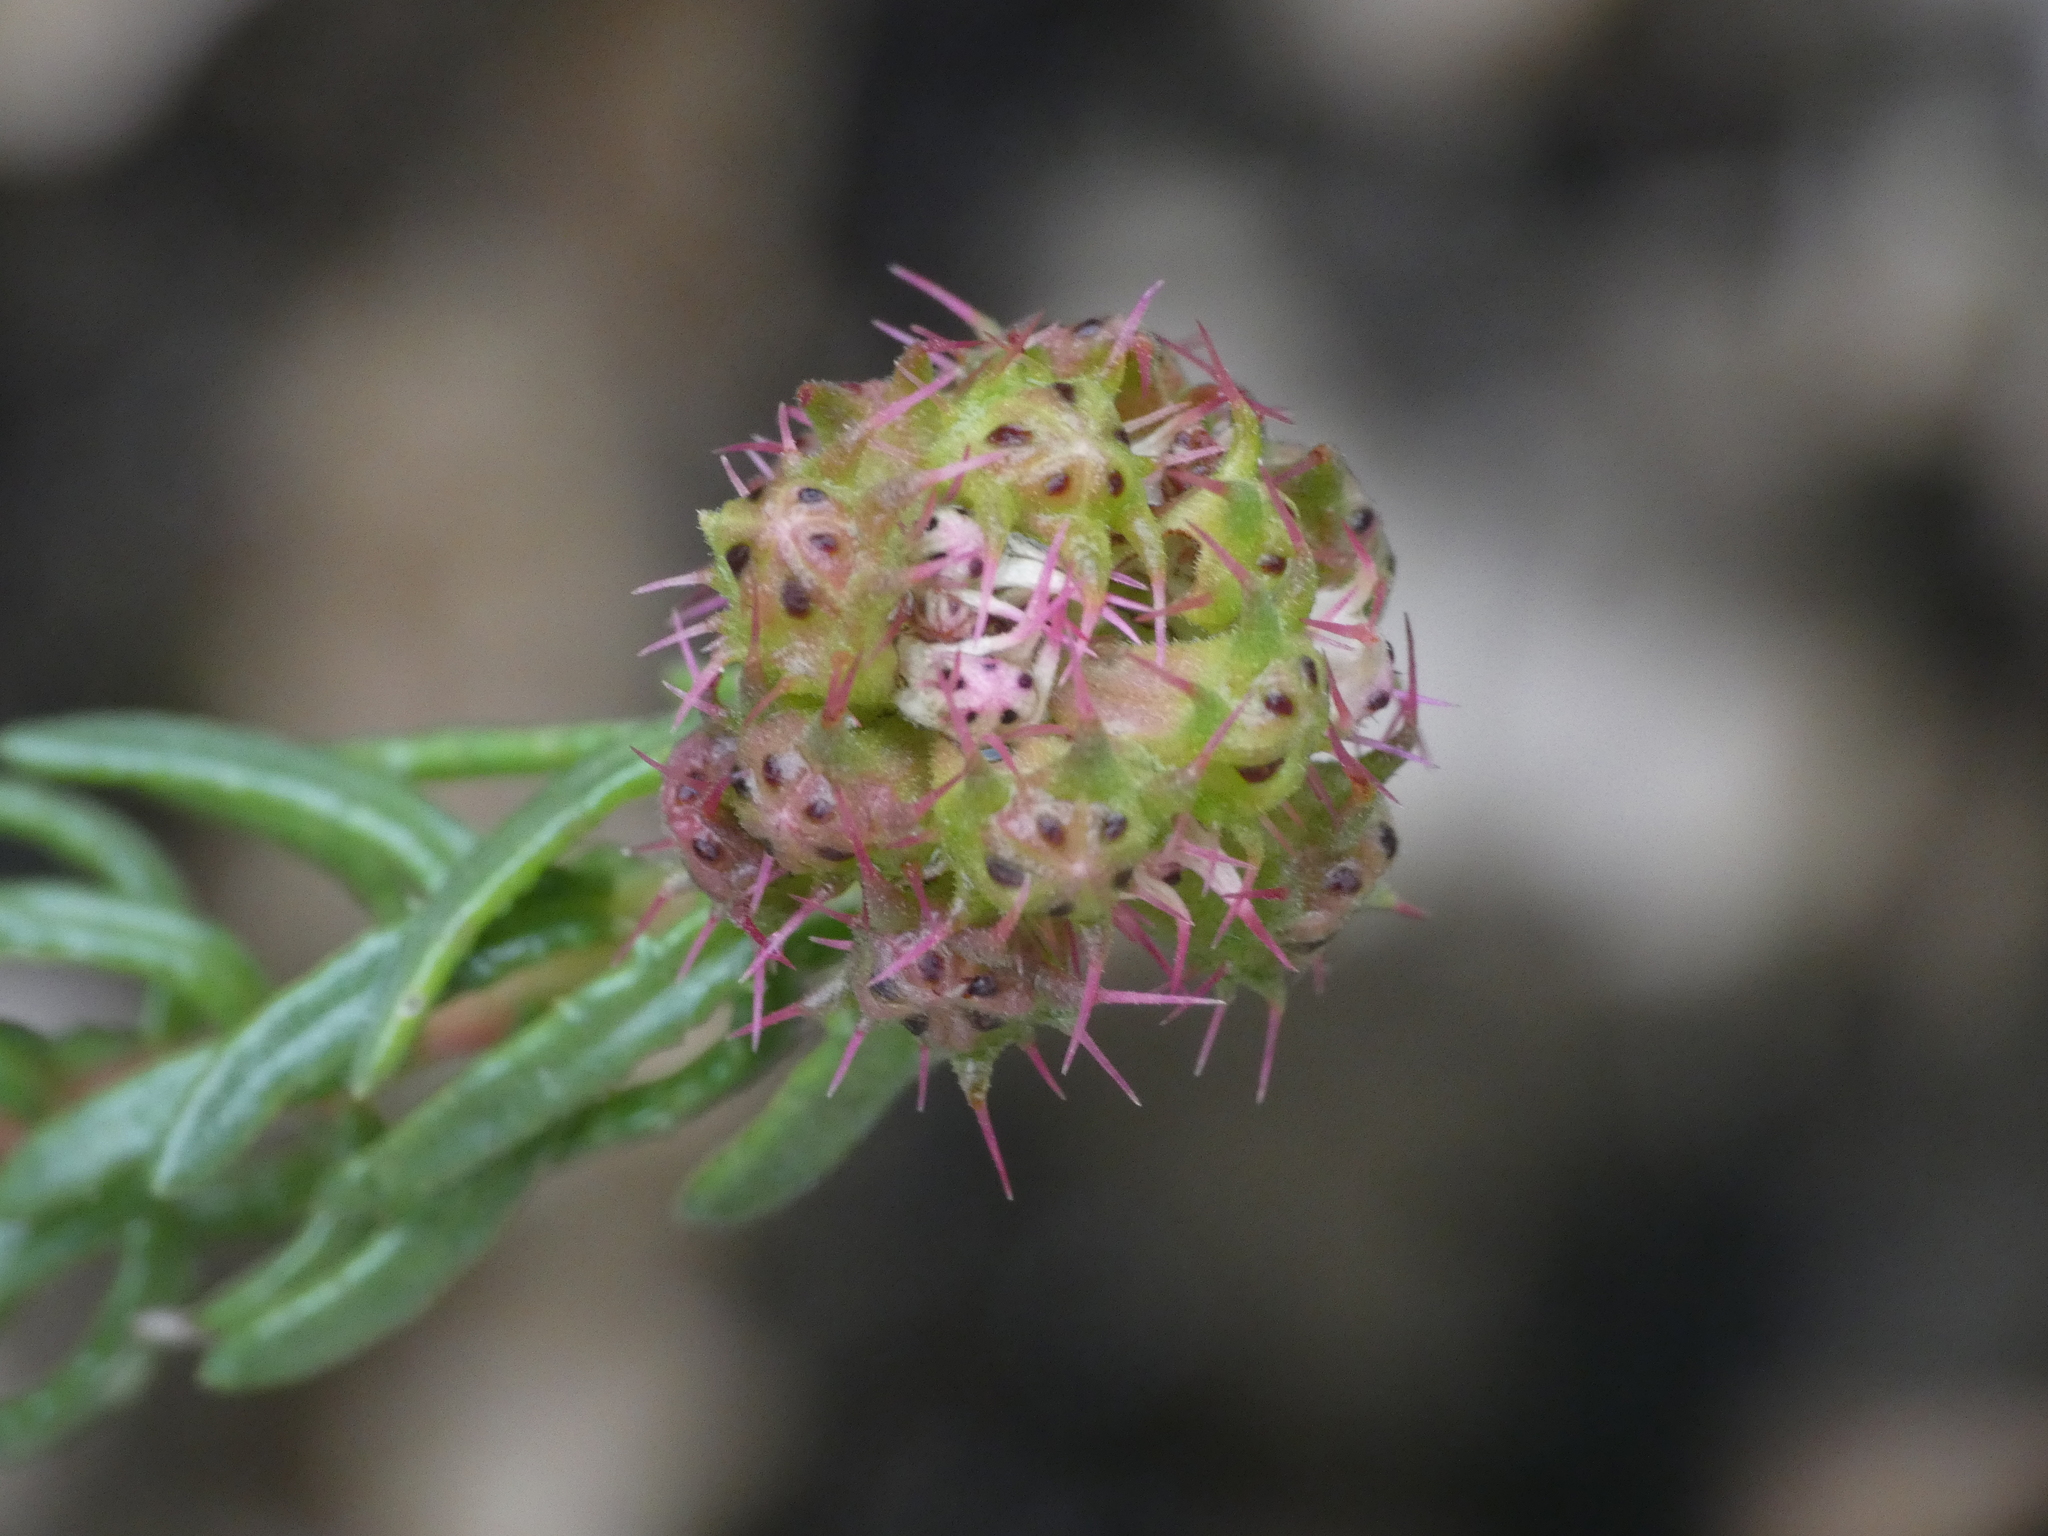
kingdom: Plantae
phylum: Tracheophyta
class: Magnoliopsida
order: Ericales
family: Primulaceae
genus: Coris
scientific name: Coris monspeliensis
